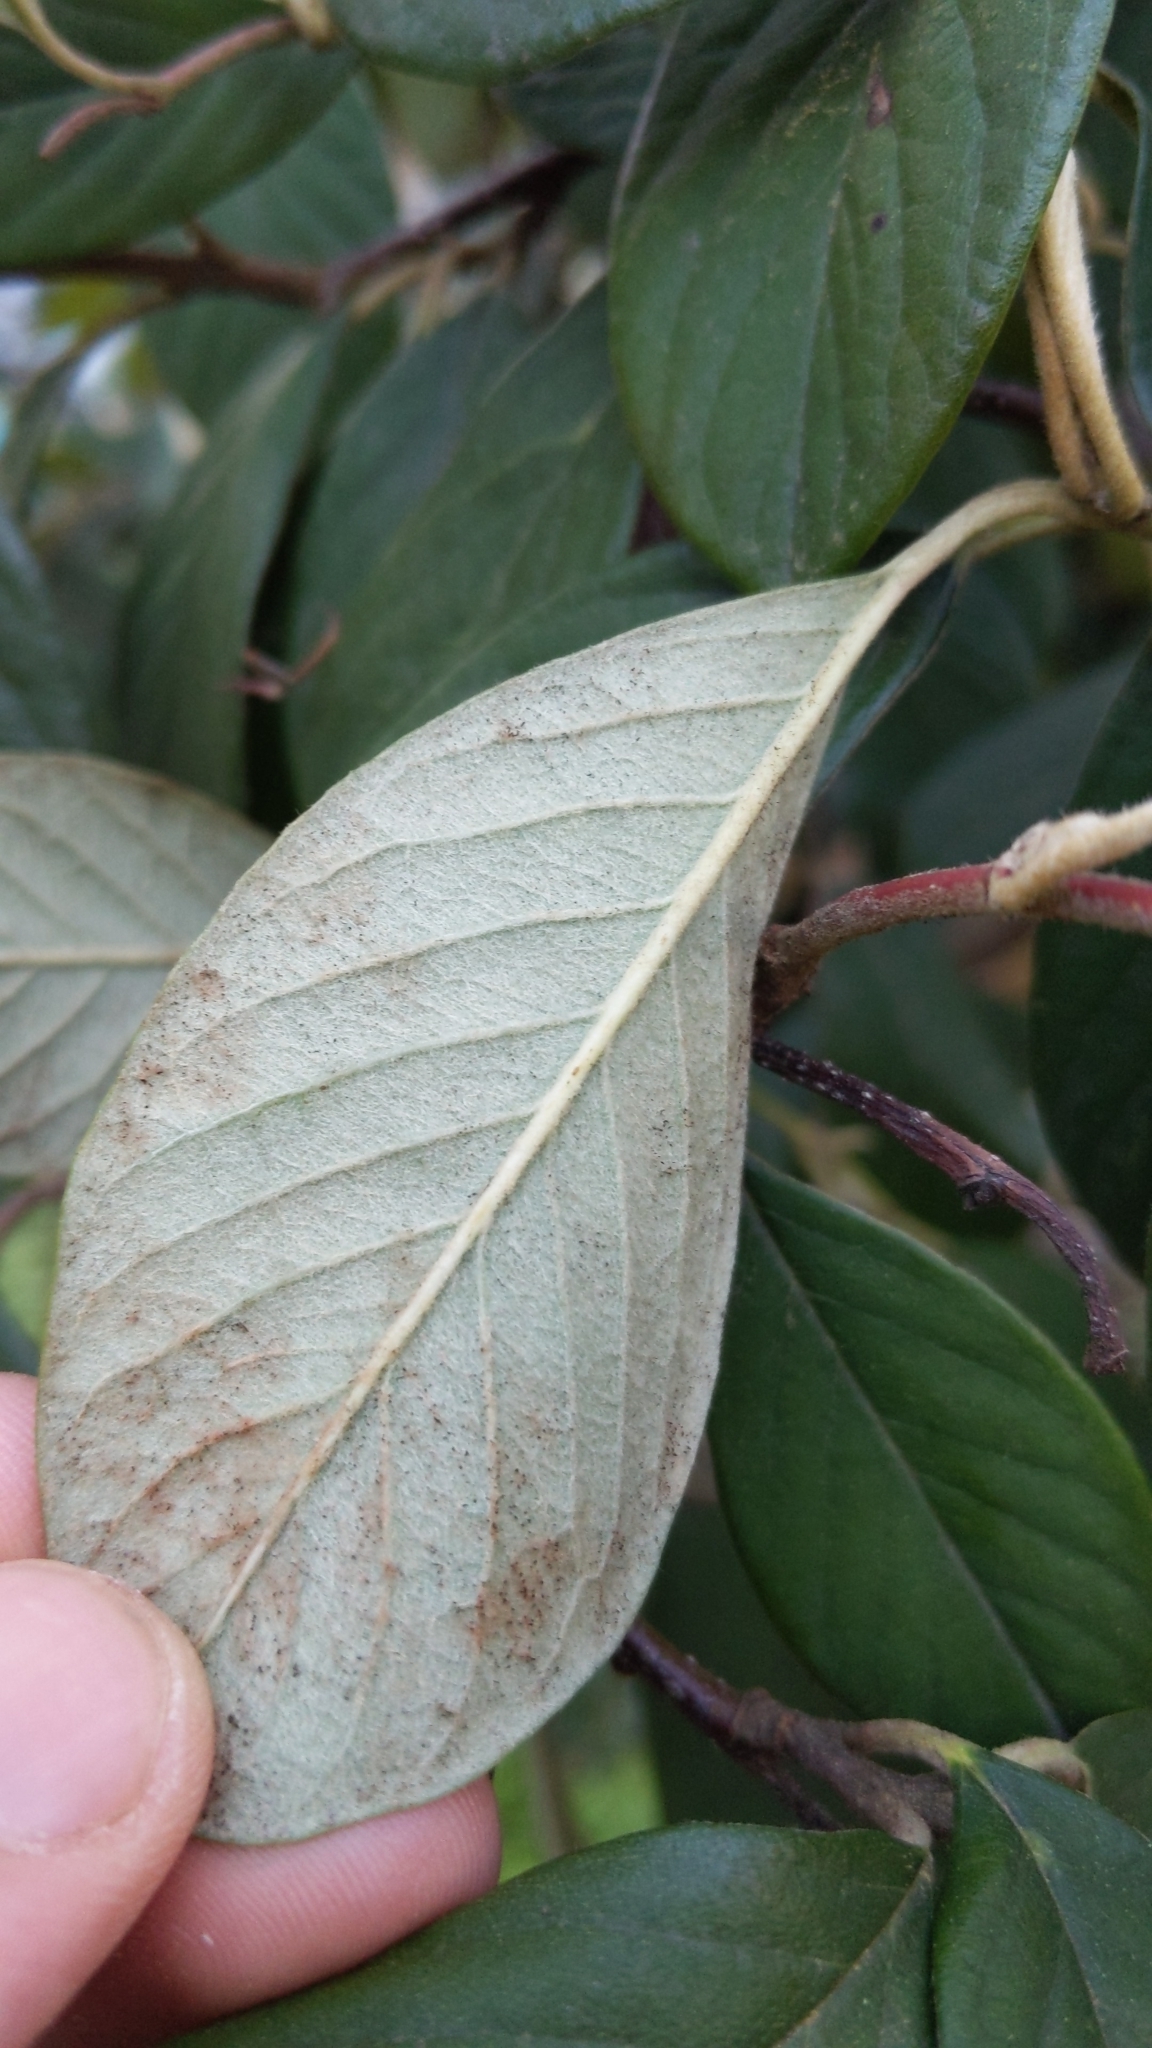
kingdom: Plantae
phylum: Tracheophyta
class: Magnoliopsida
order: Rosales
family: Rosaceae
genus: Cotoneaster
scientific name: Cotoneaster coriaceus
